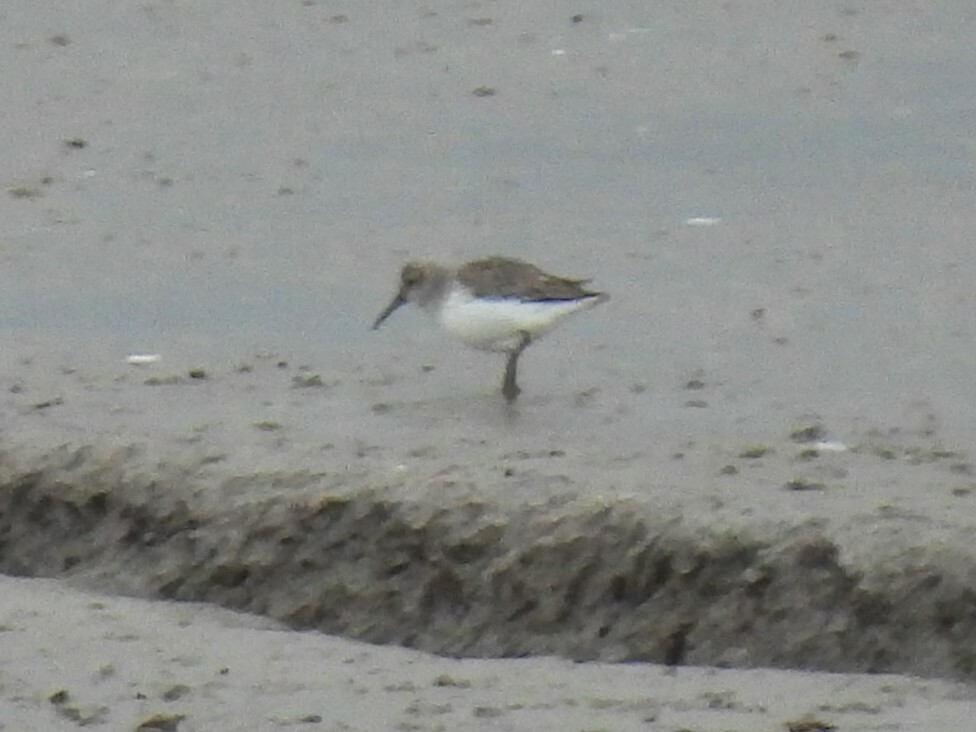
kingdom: Animalia
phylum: Chordata
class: Aves
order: Charadriiformes
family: Scolopacidae
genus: Calidris
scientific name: Calidris alpina
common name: Dunlin
